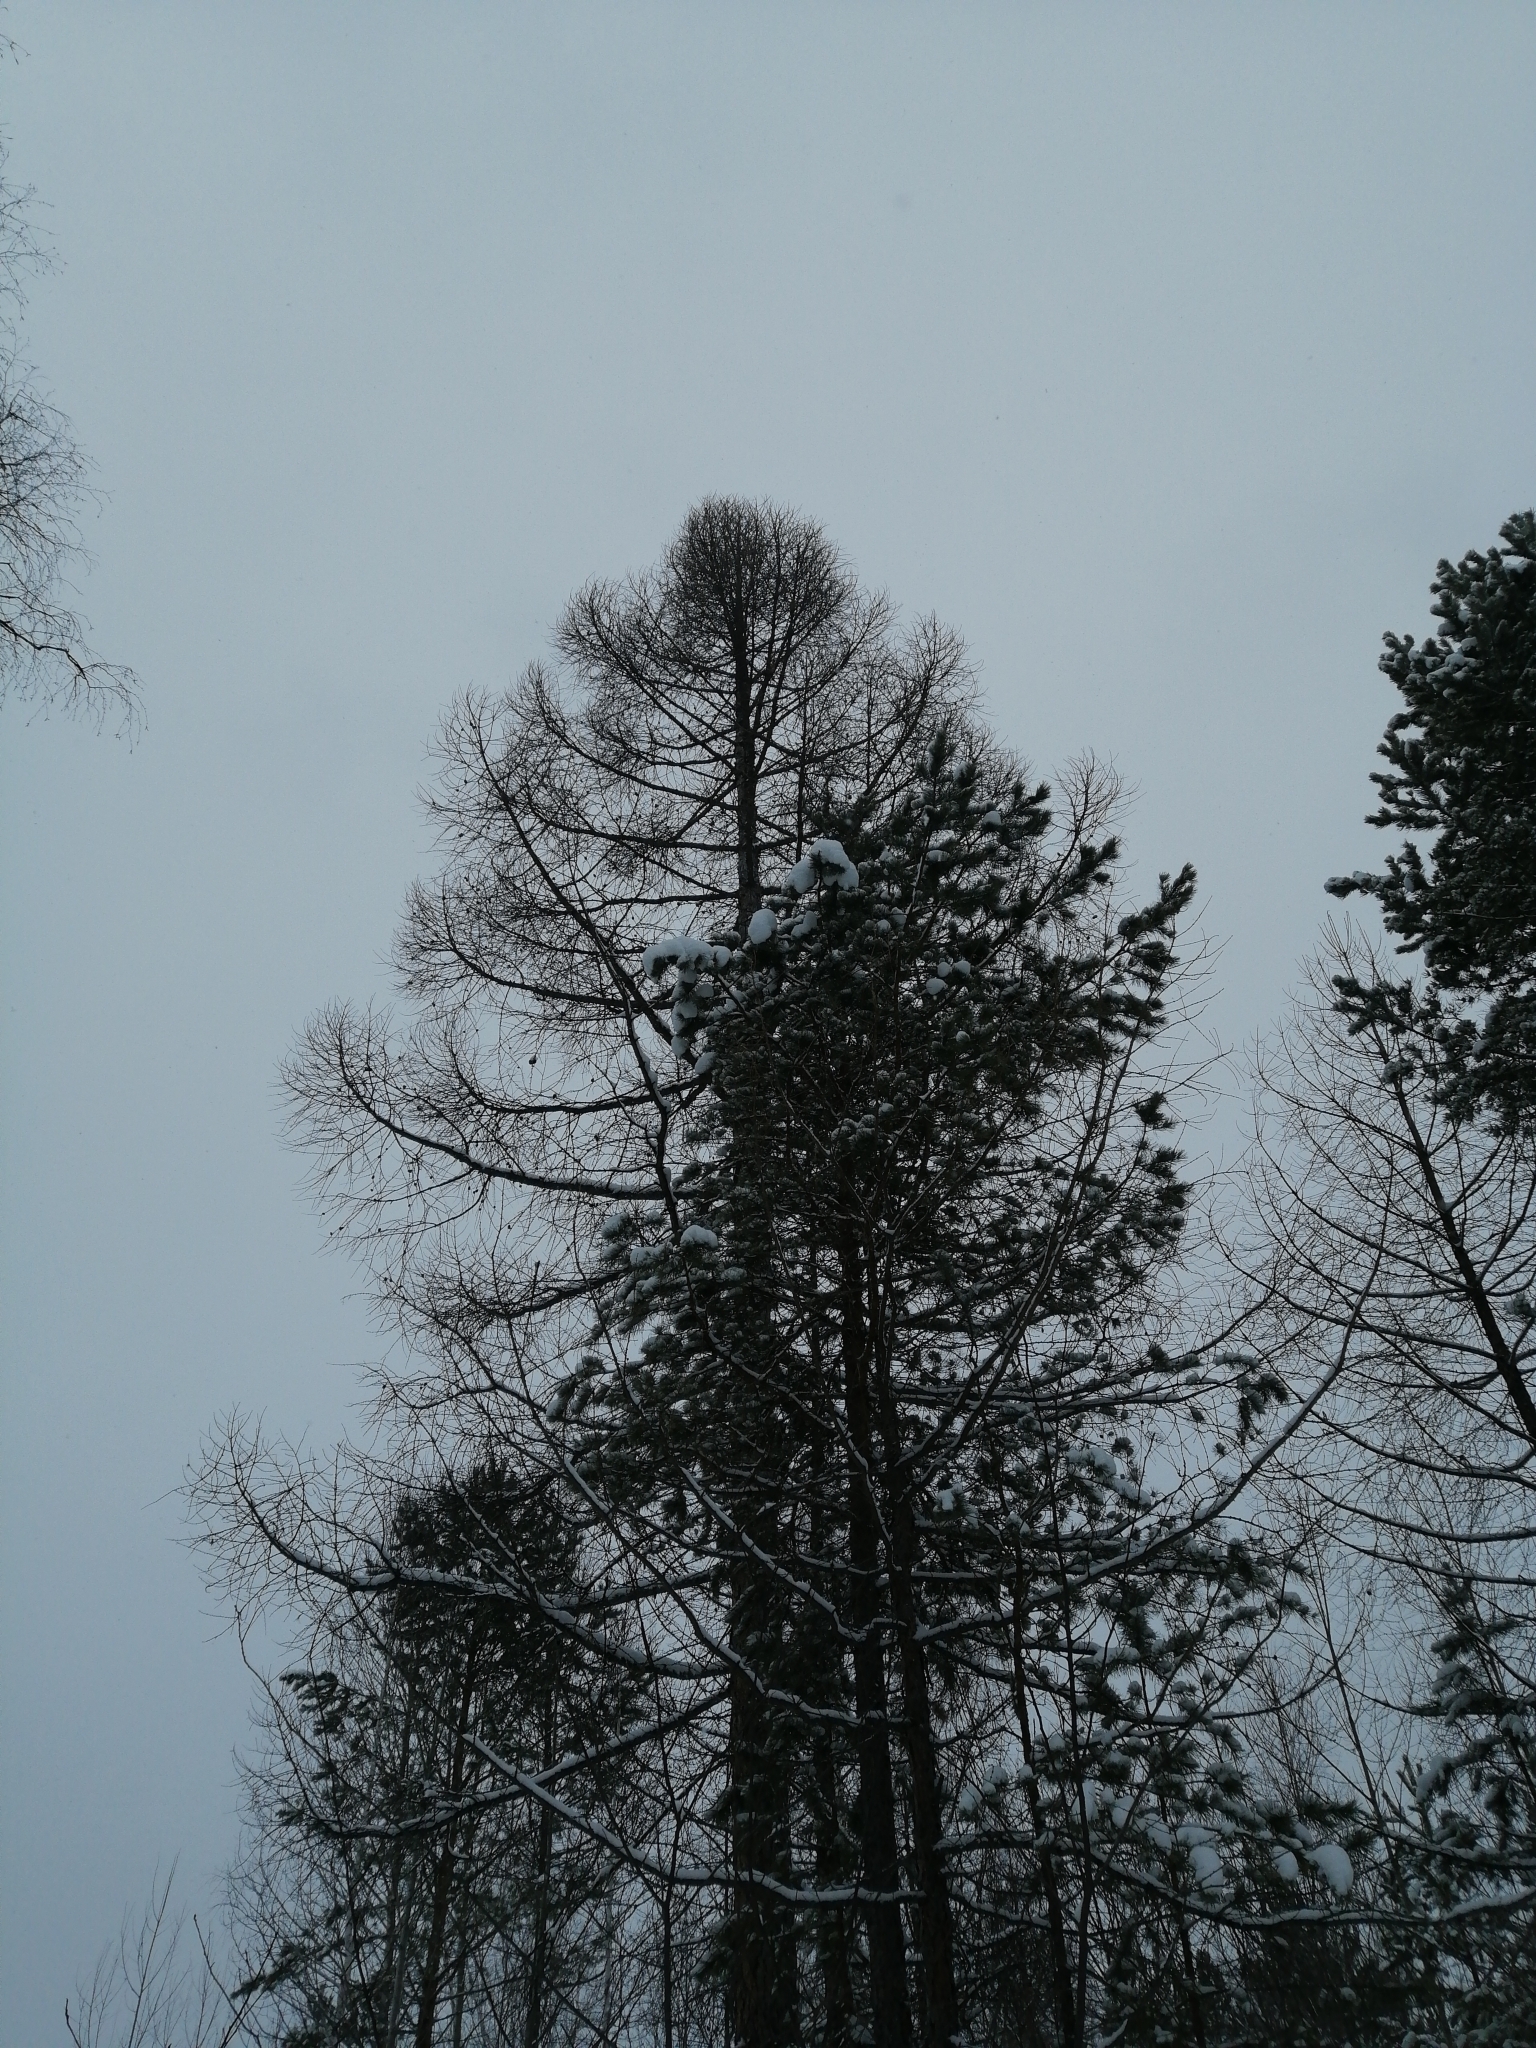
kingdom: Plantae
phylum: Tracheophyta
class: Pinopsida
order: Pinales
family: Pinaceae
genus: Larix
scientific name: Larix sibirica
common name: Siberian larch
